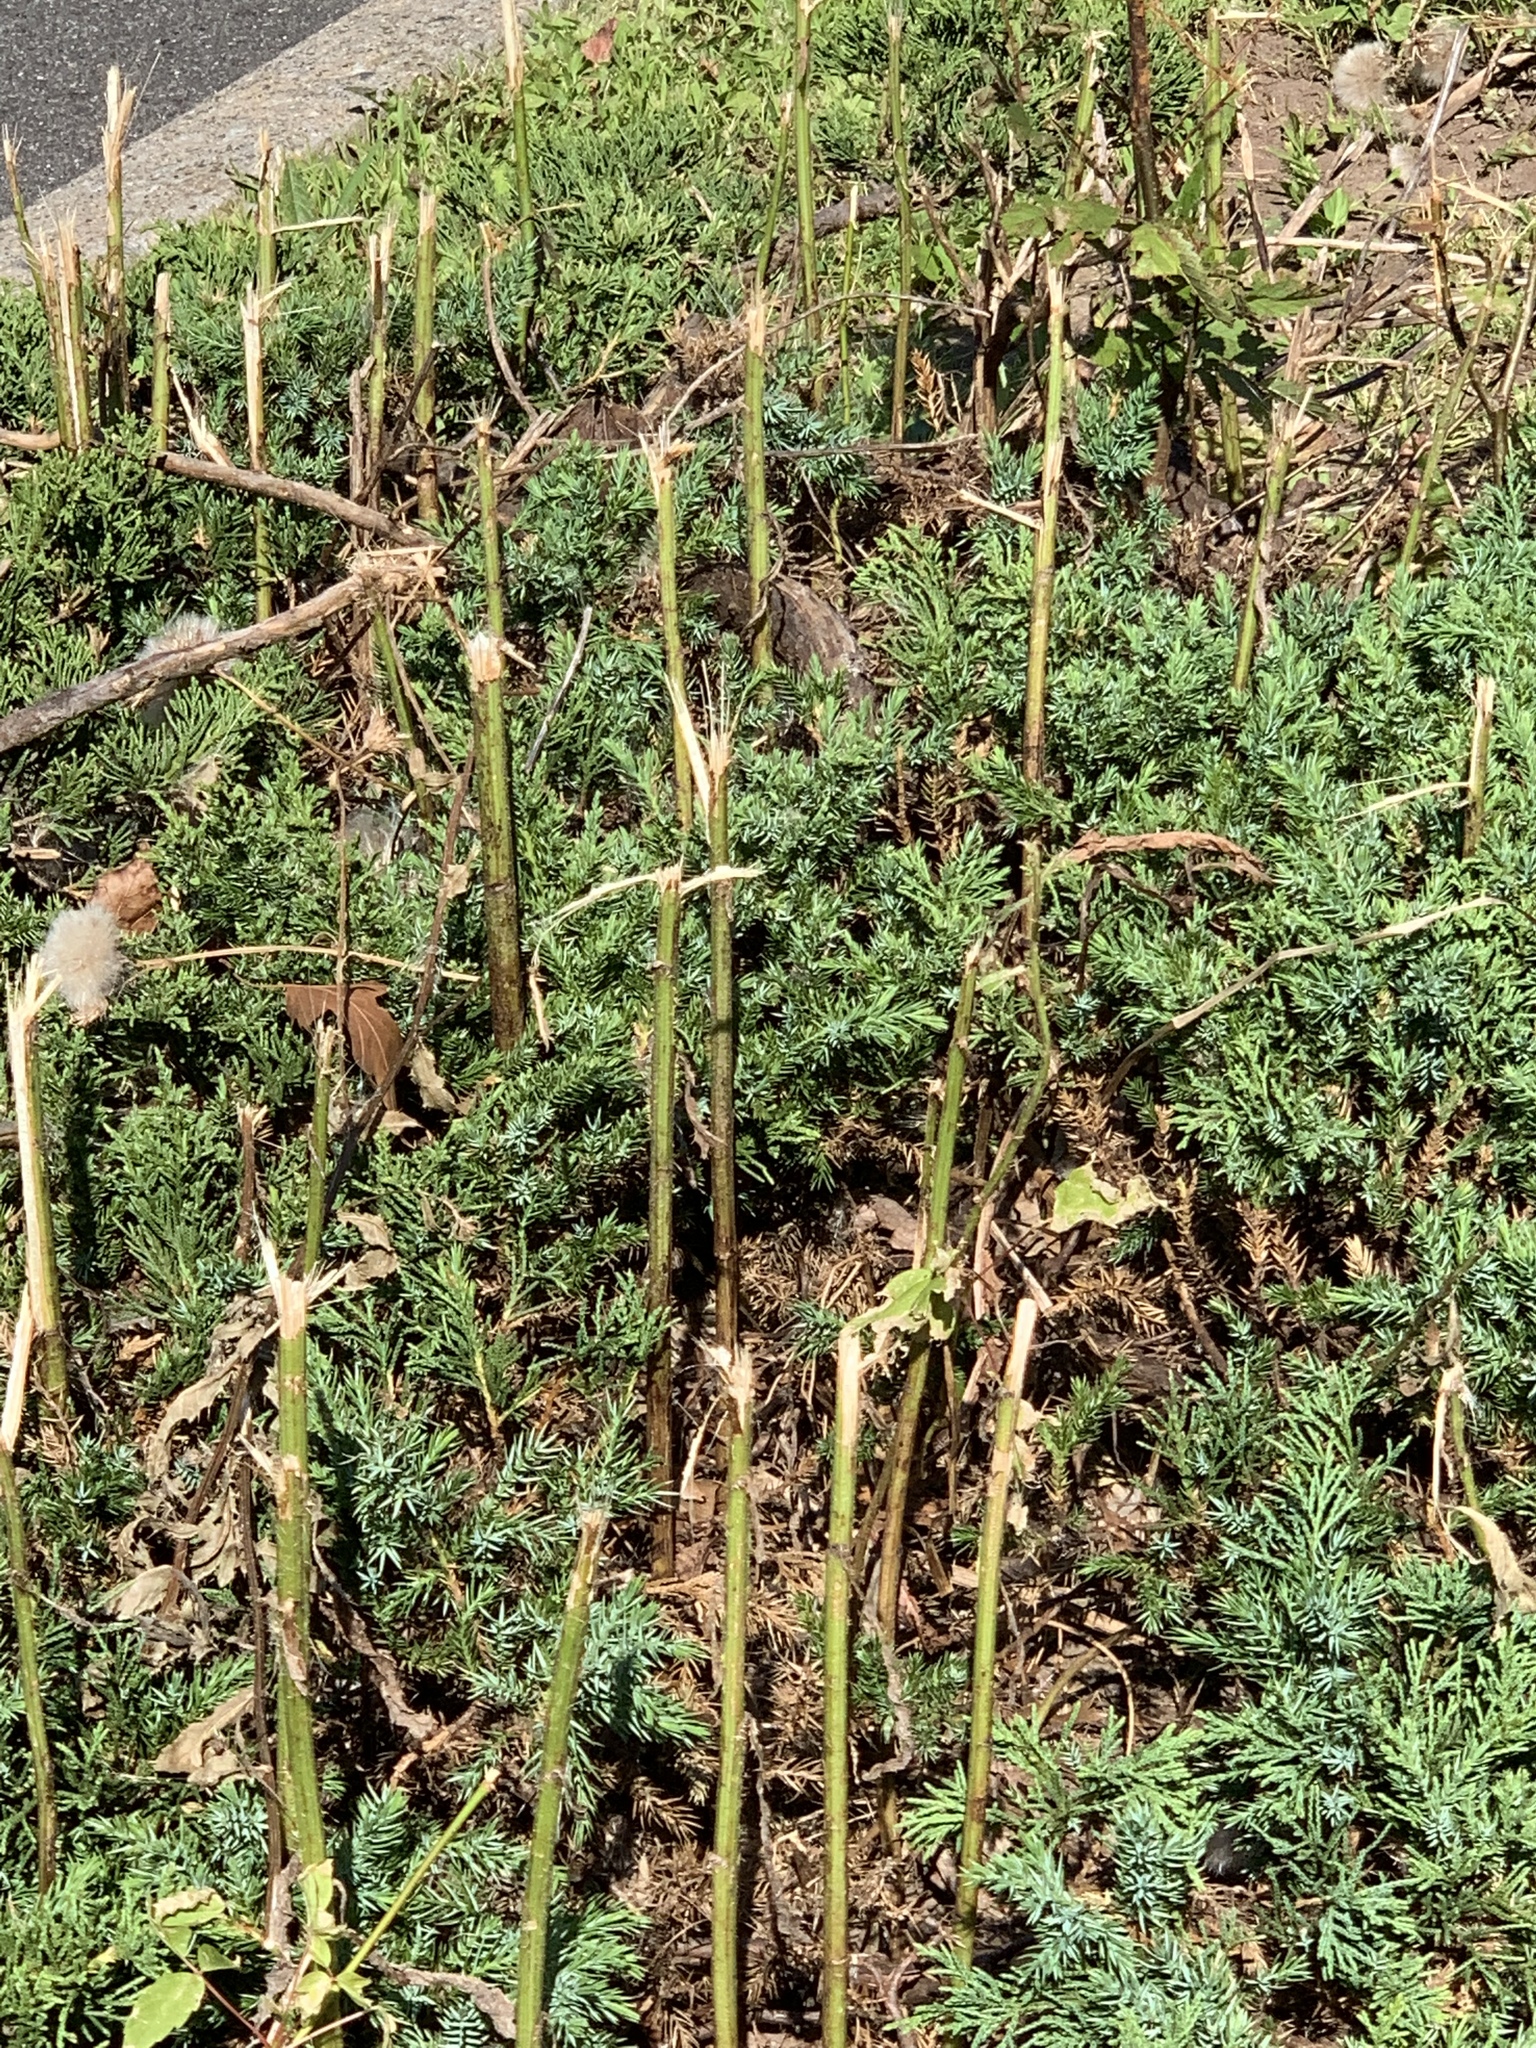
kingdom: Plantae
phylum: Tracheophyta
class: Magnoliopsida
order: Asterales
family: Asteraceae
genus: Cirsium
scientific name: Cirsium arvense
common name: Creeping thistle
